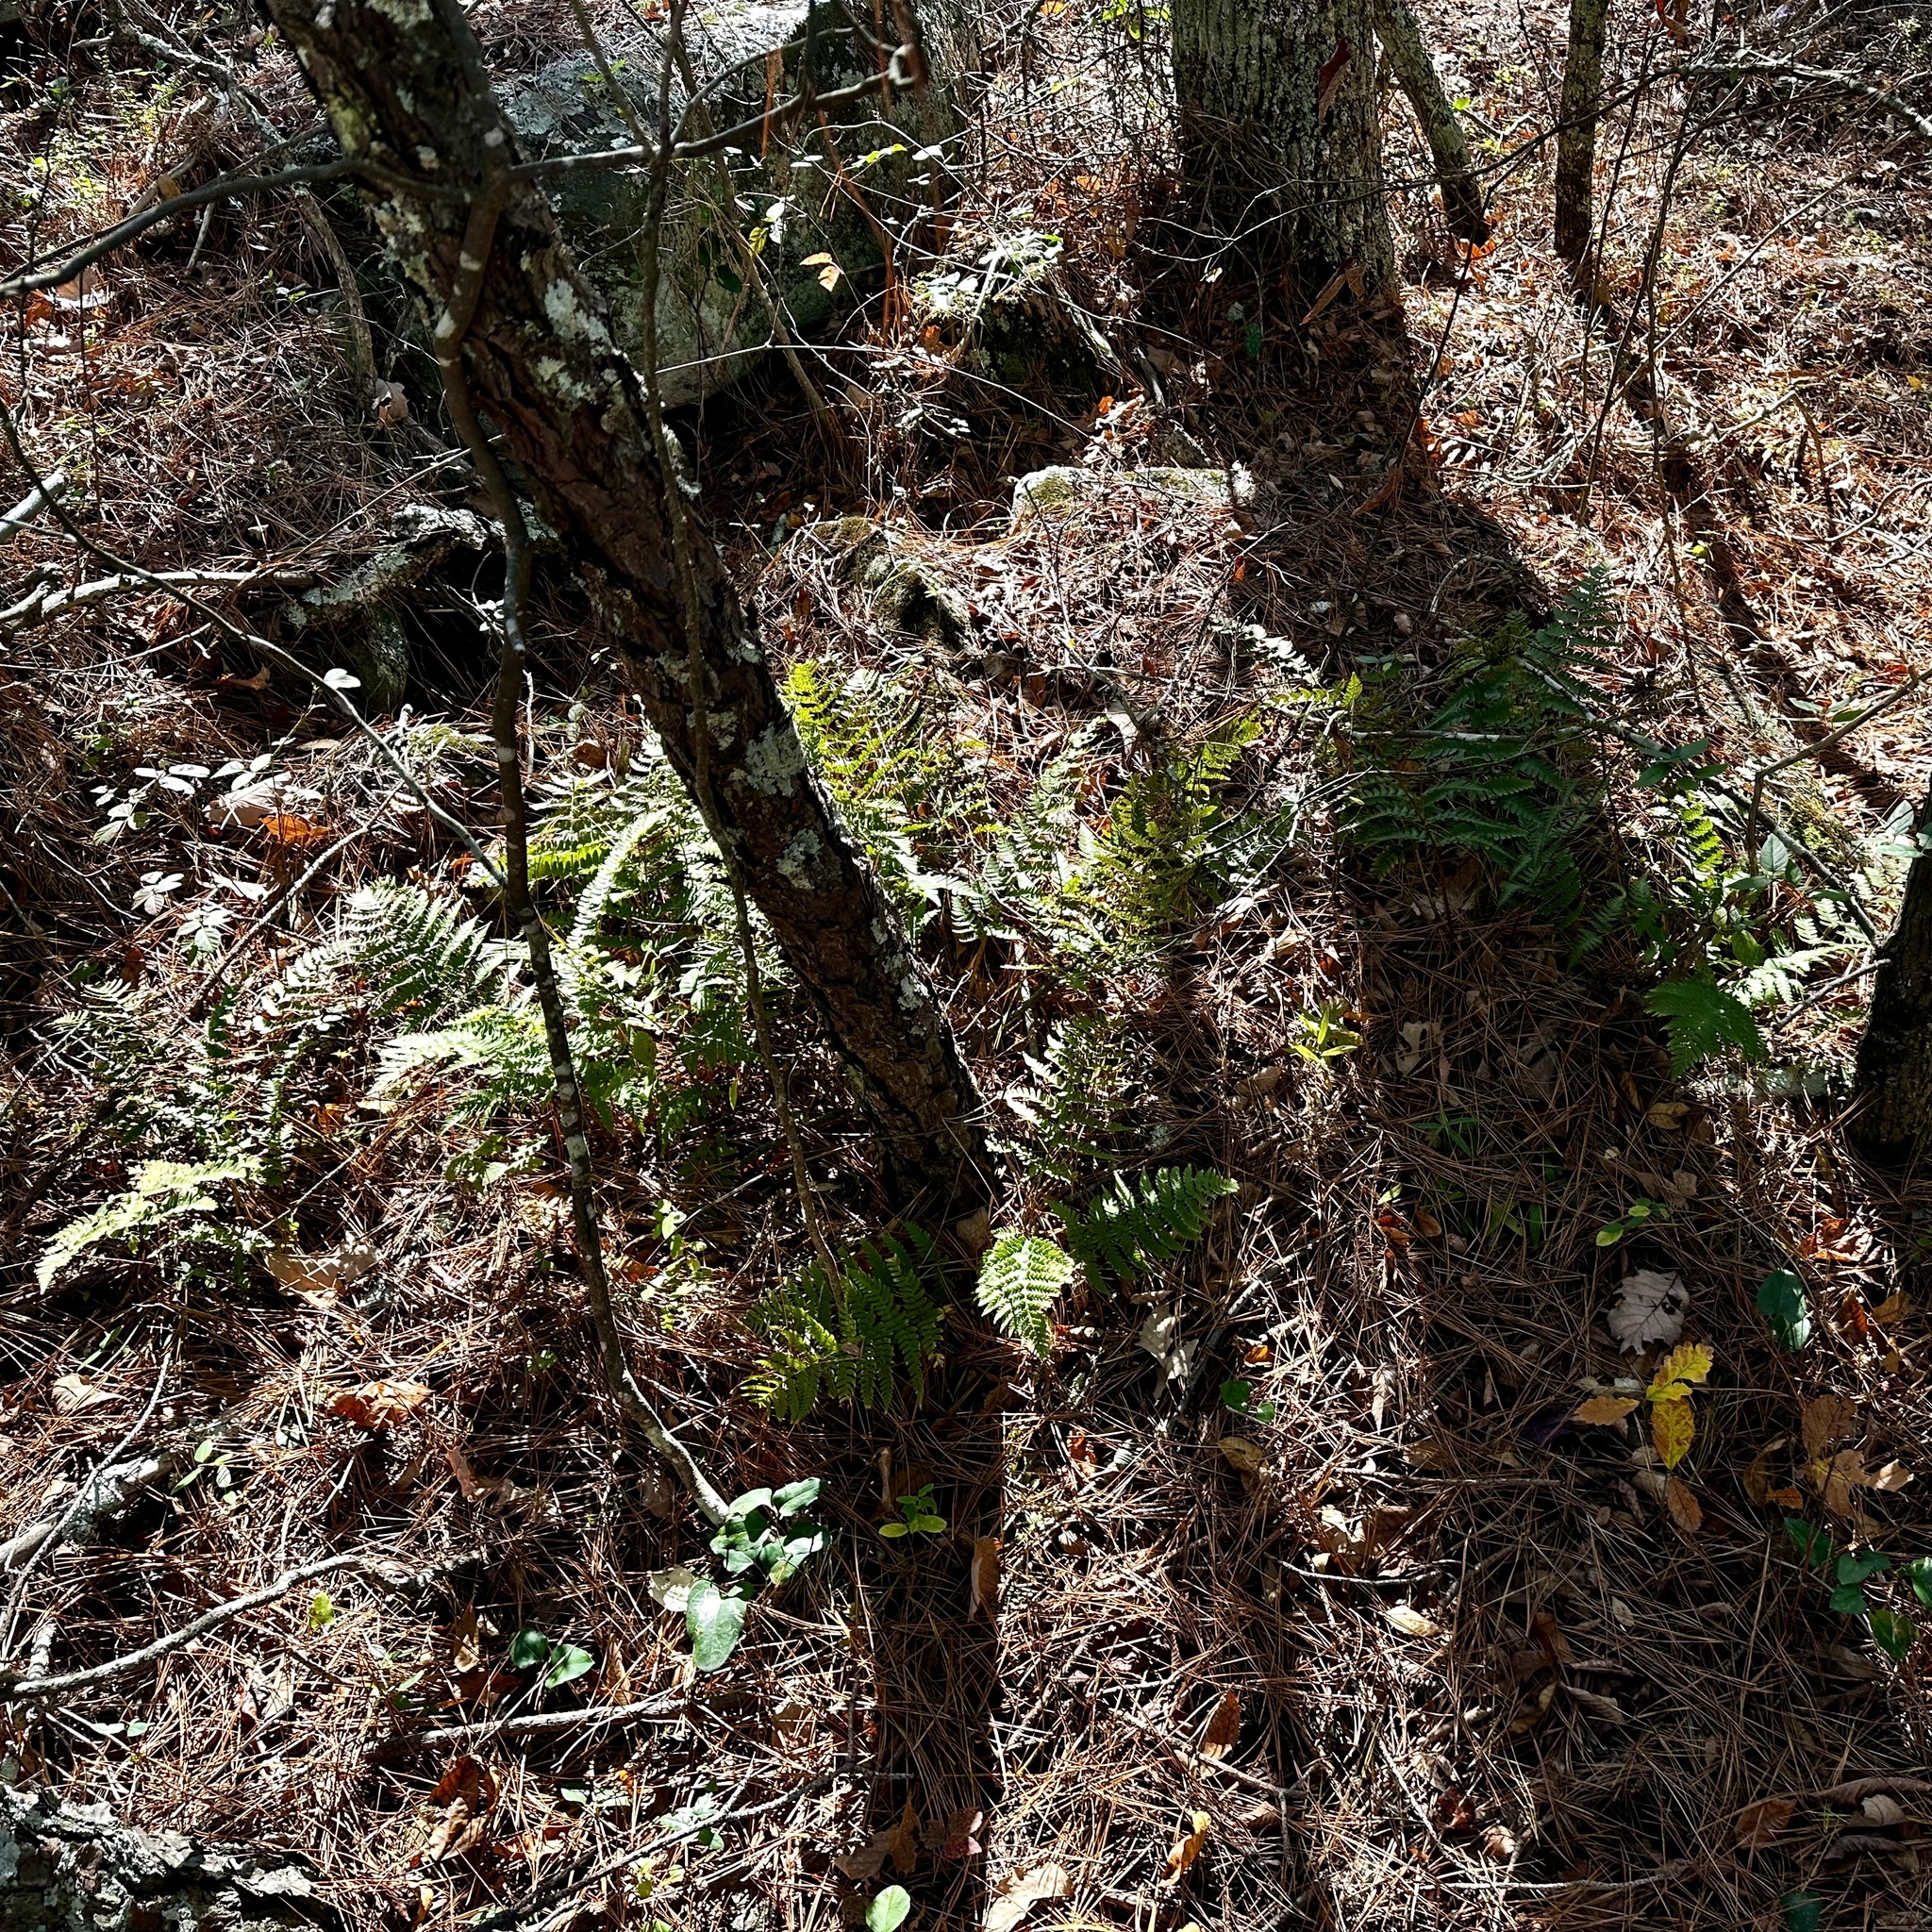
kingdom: Plantae
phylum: Tracheophyta
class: Polypodiopsida
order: Polypodiales
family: Dryopteridaceae
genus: Dryopteris
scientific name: Dryopteris marginalis
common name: Marginal wood fern
